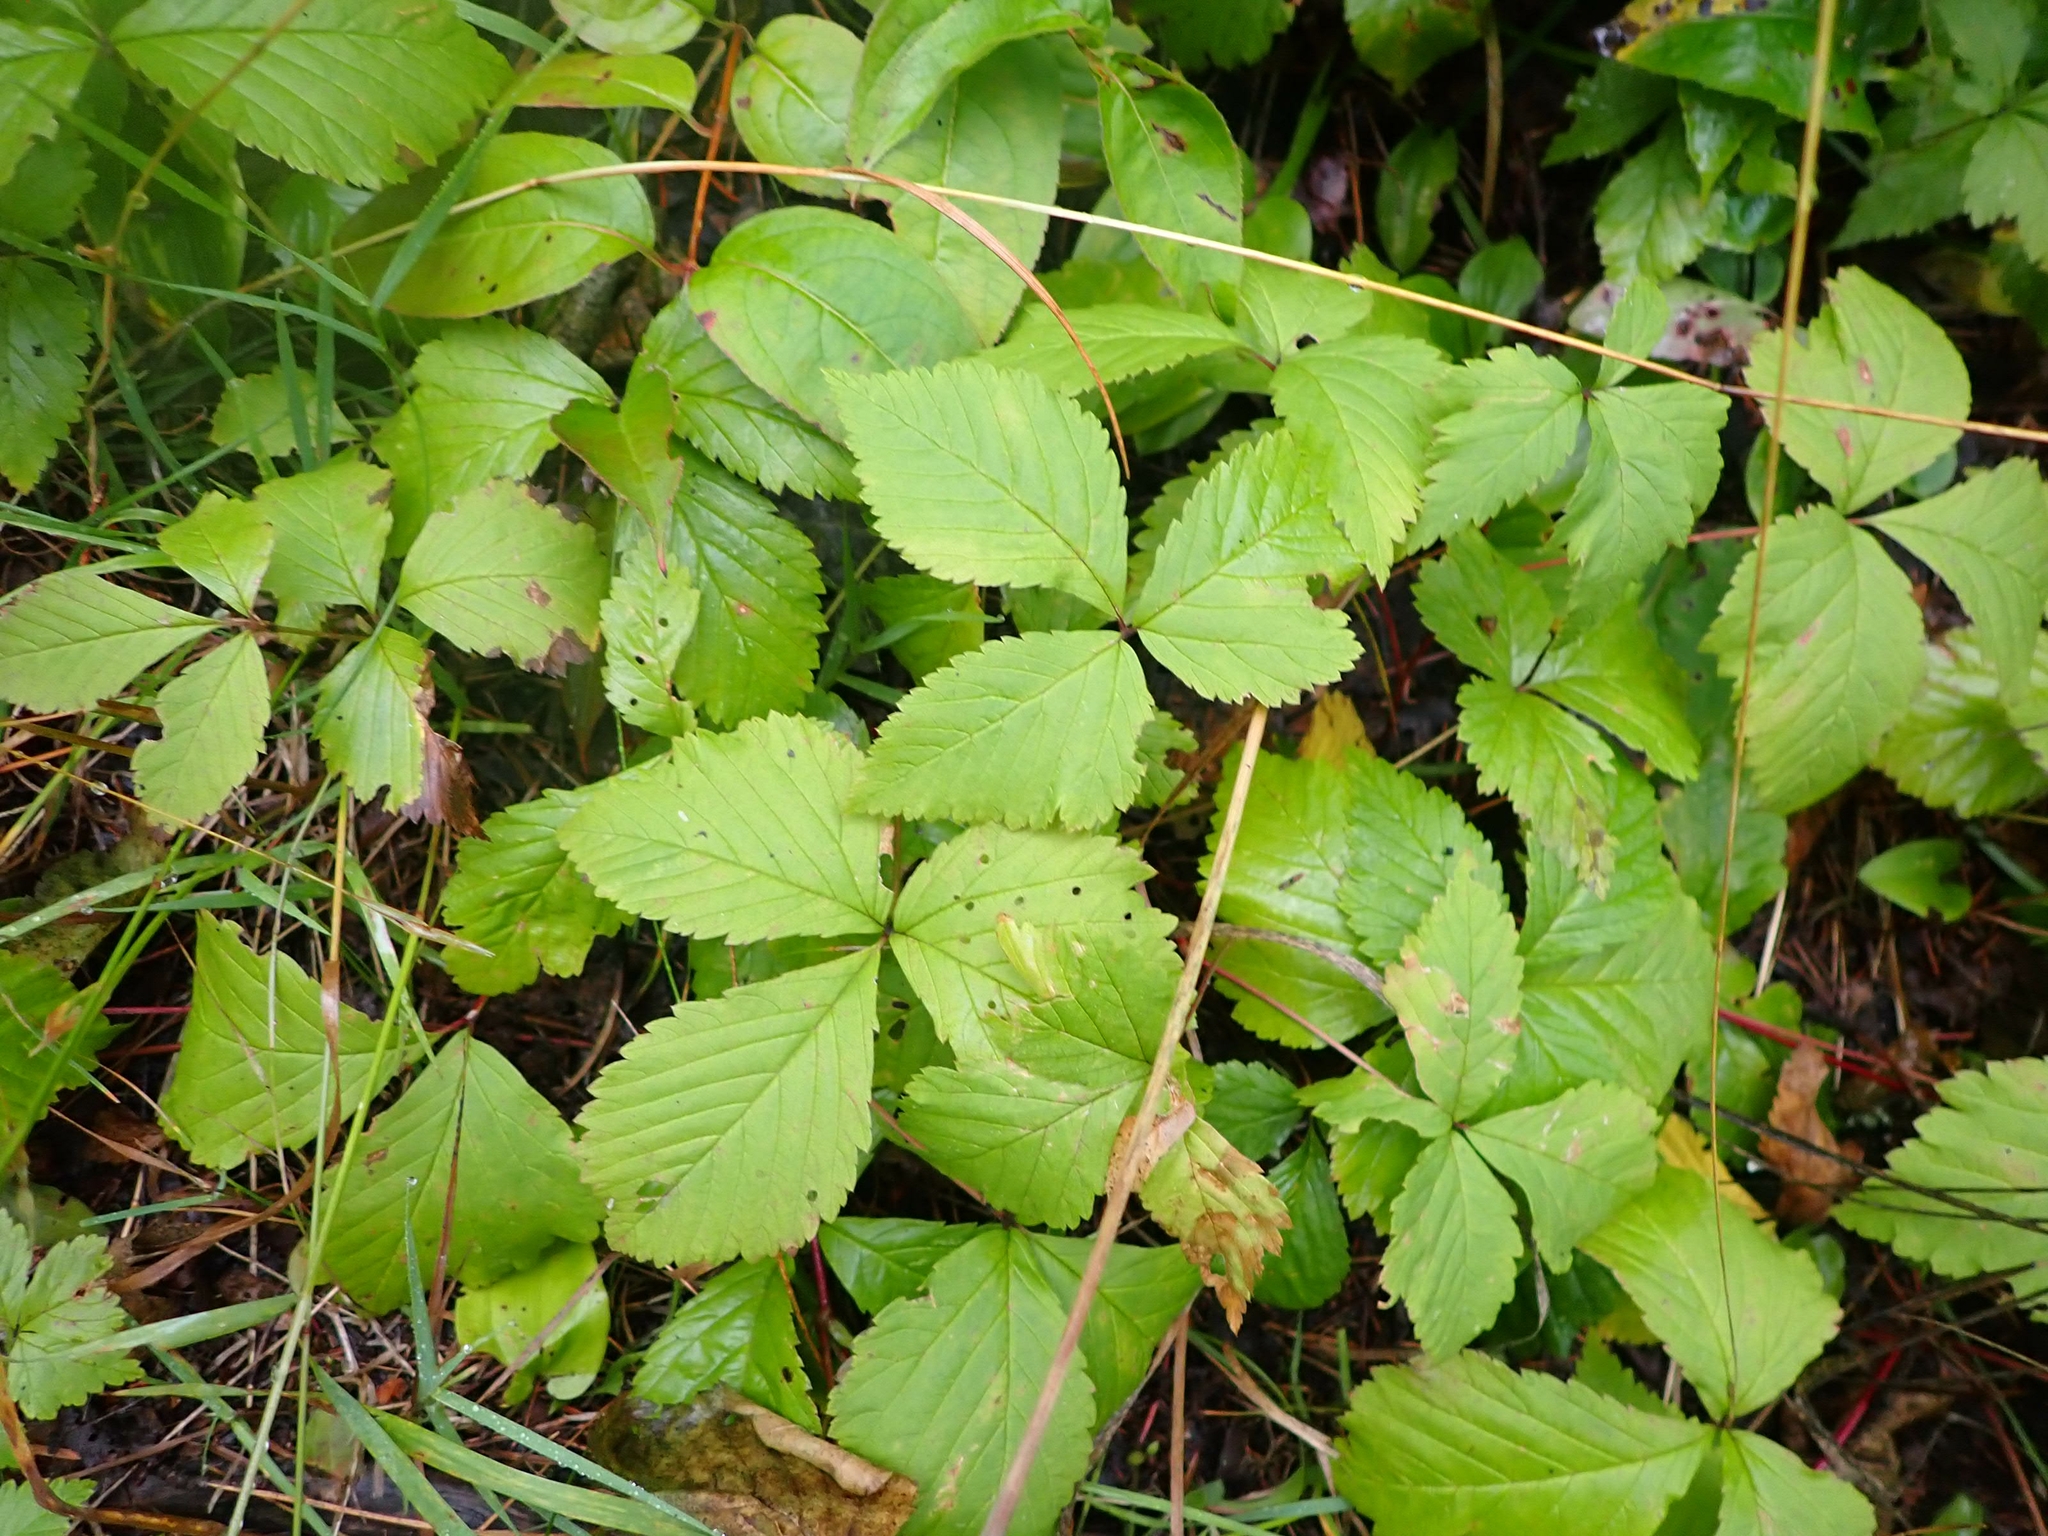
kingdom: Plantae
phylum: Tracheophyta
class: Magnoliopsida
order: Rosales
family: Rosaceae
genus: Rubus
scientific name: Rubus pubescens
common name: Dwarf raspberry
